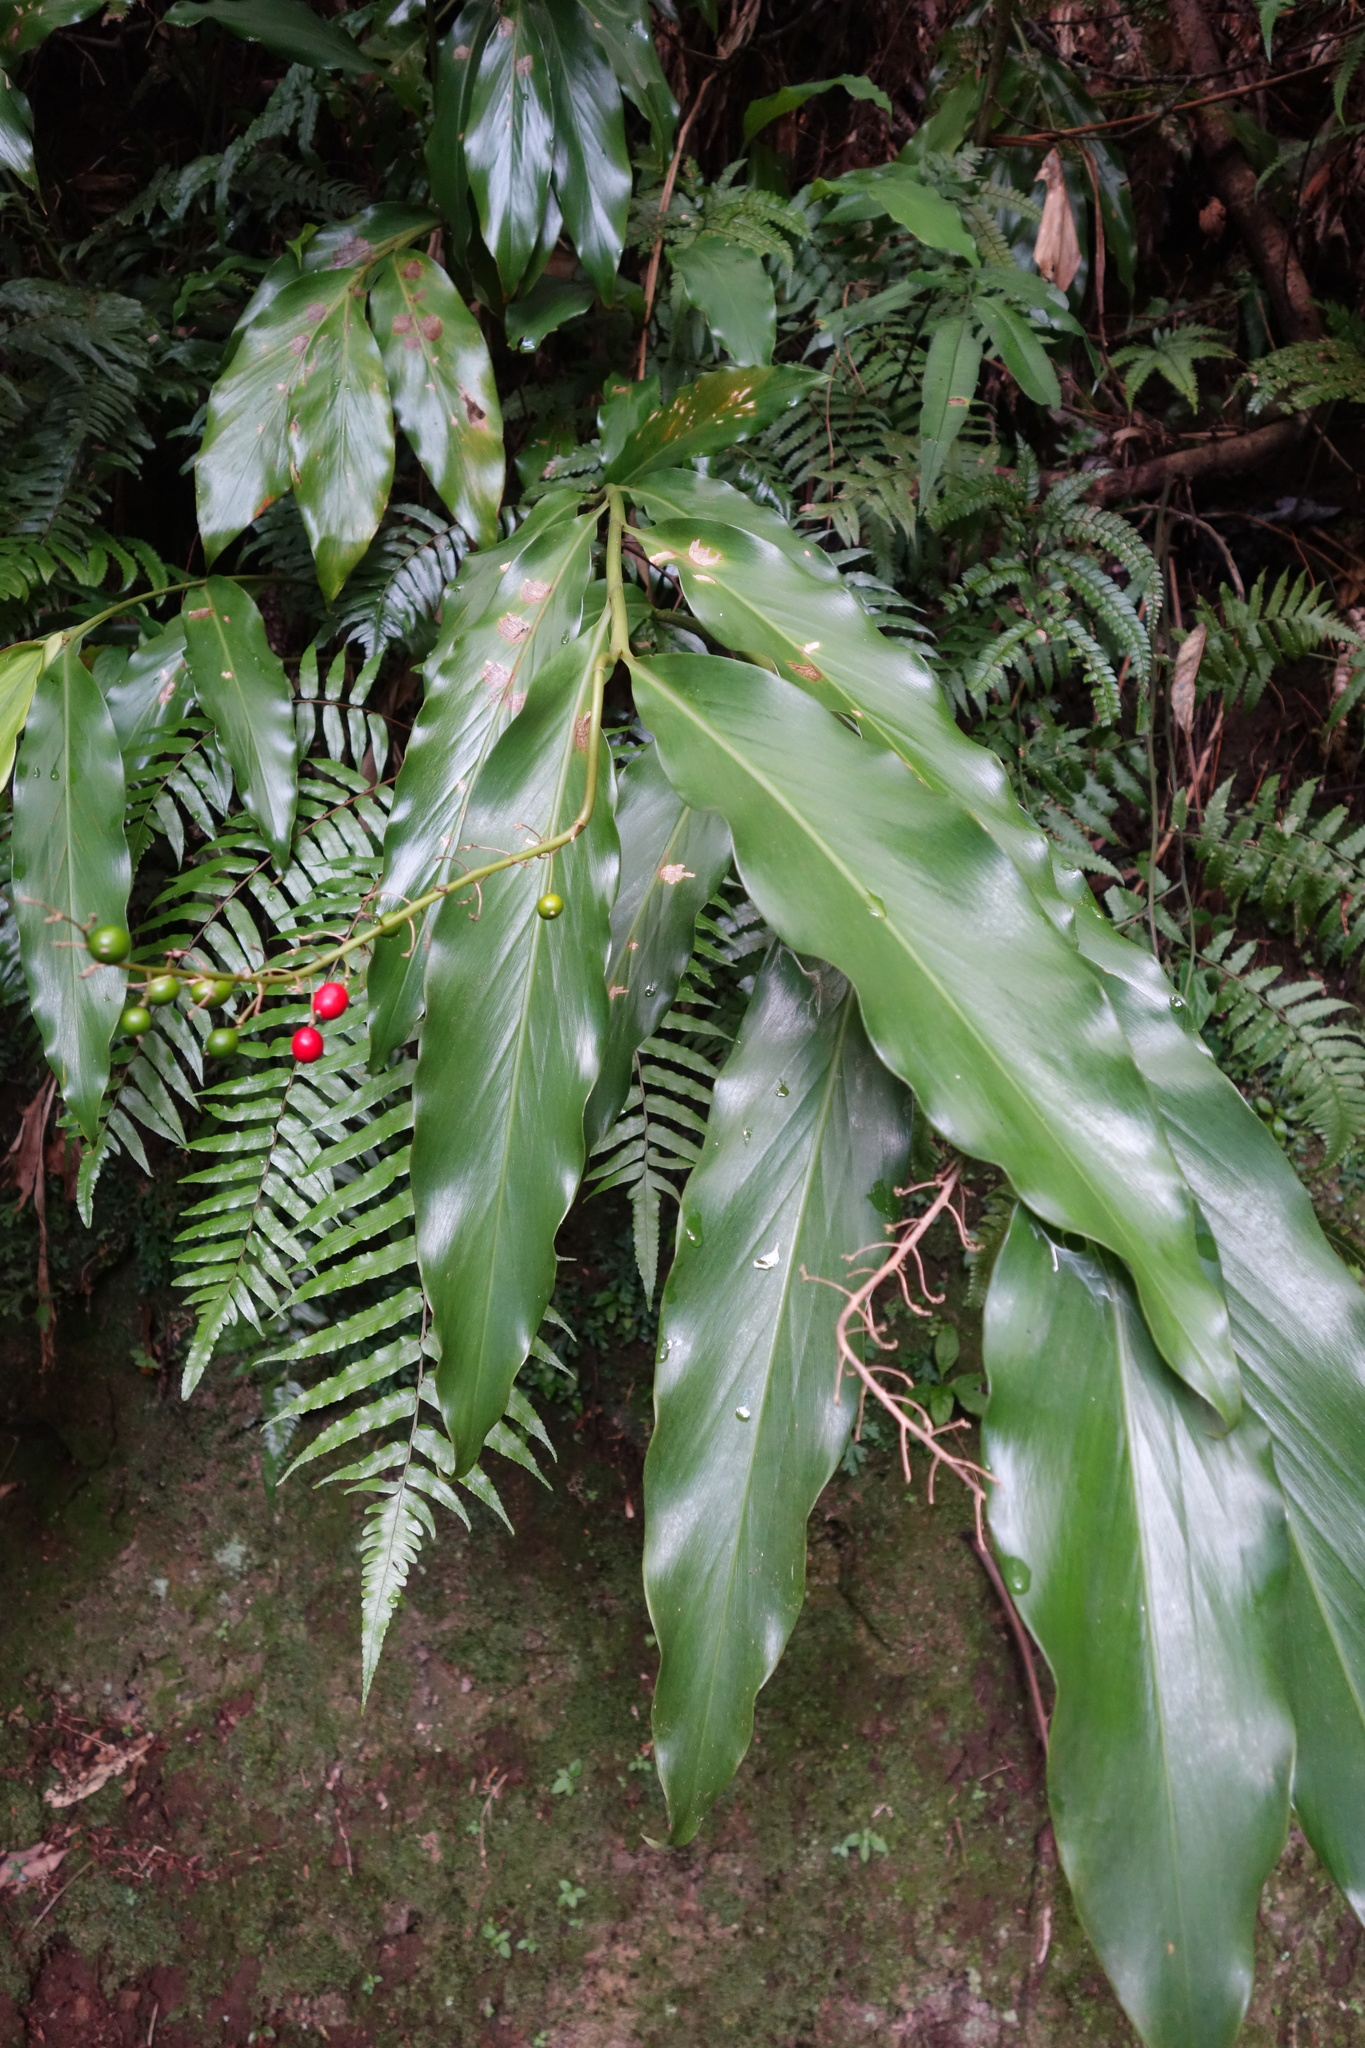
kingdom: Plantae
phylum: Tracheophyta
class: Liliopsida
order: Zingiberales
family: Zingiberaceae
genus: Alpinia
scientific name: Alpinia intermedia
